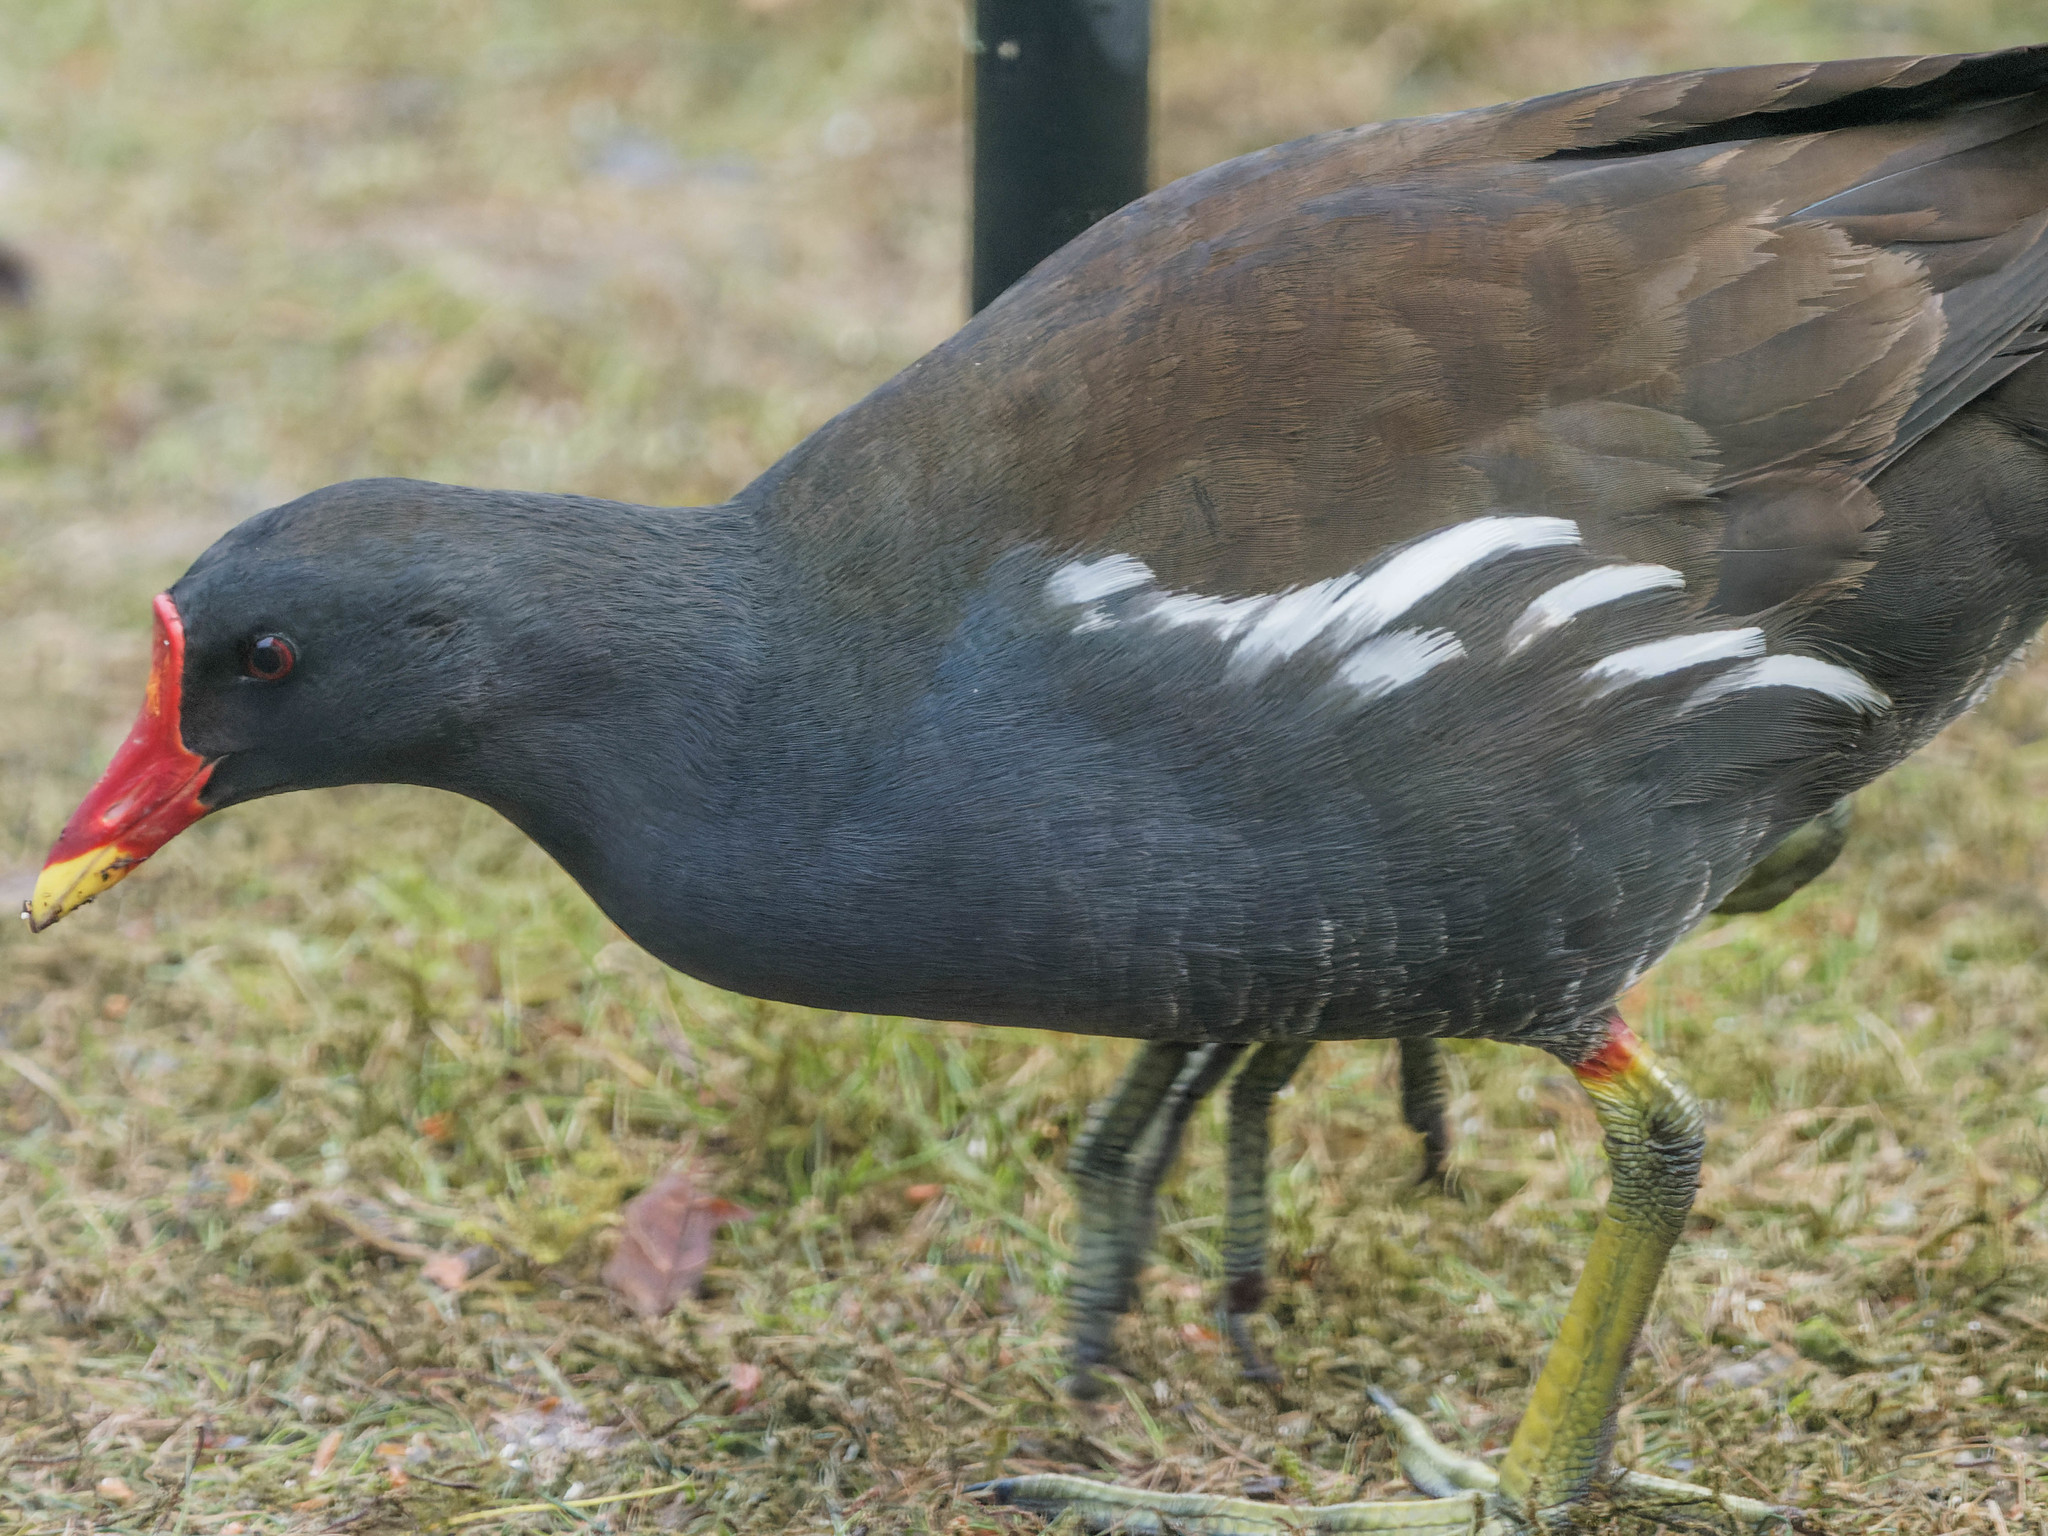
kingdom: Animalia
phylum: Chordata
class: Aves
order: Gruiformes
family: Rallidae
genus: Gallinula
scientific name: Gallinula chloropus
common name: Common moorhen
